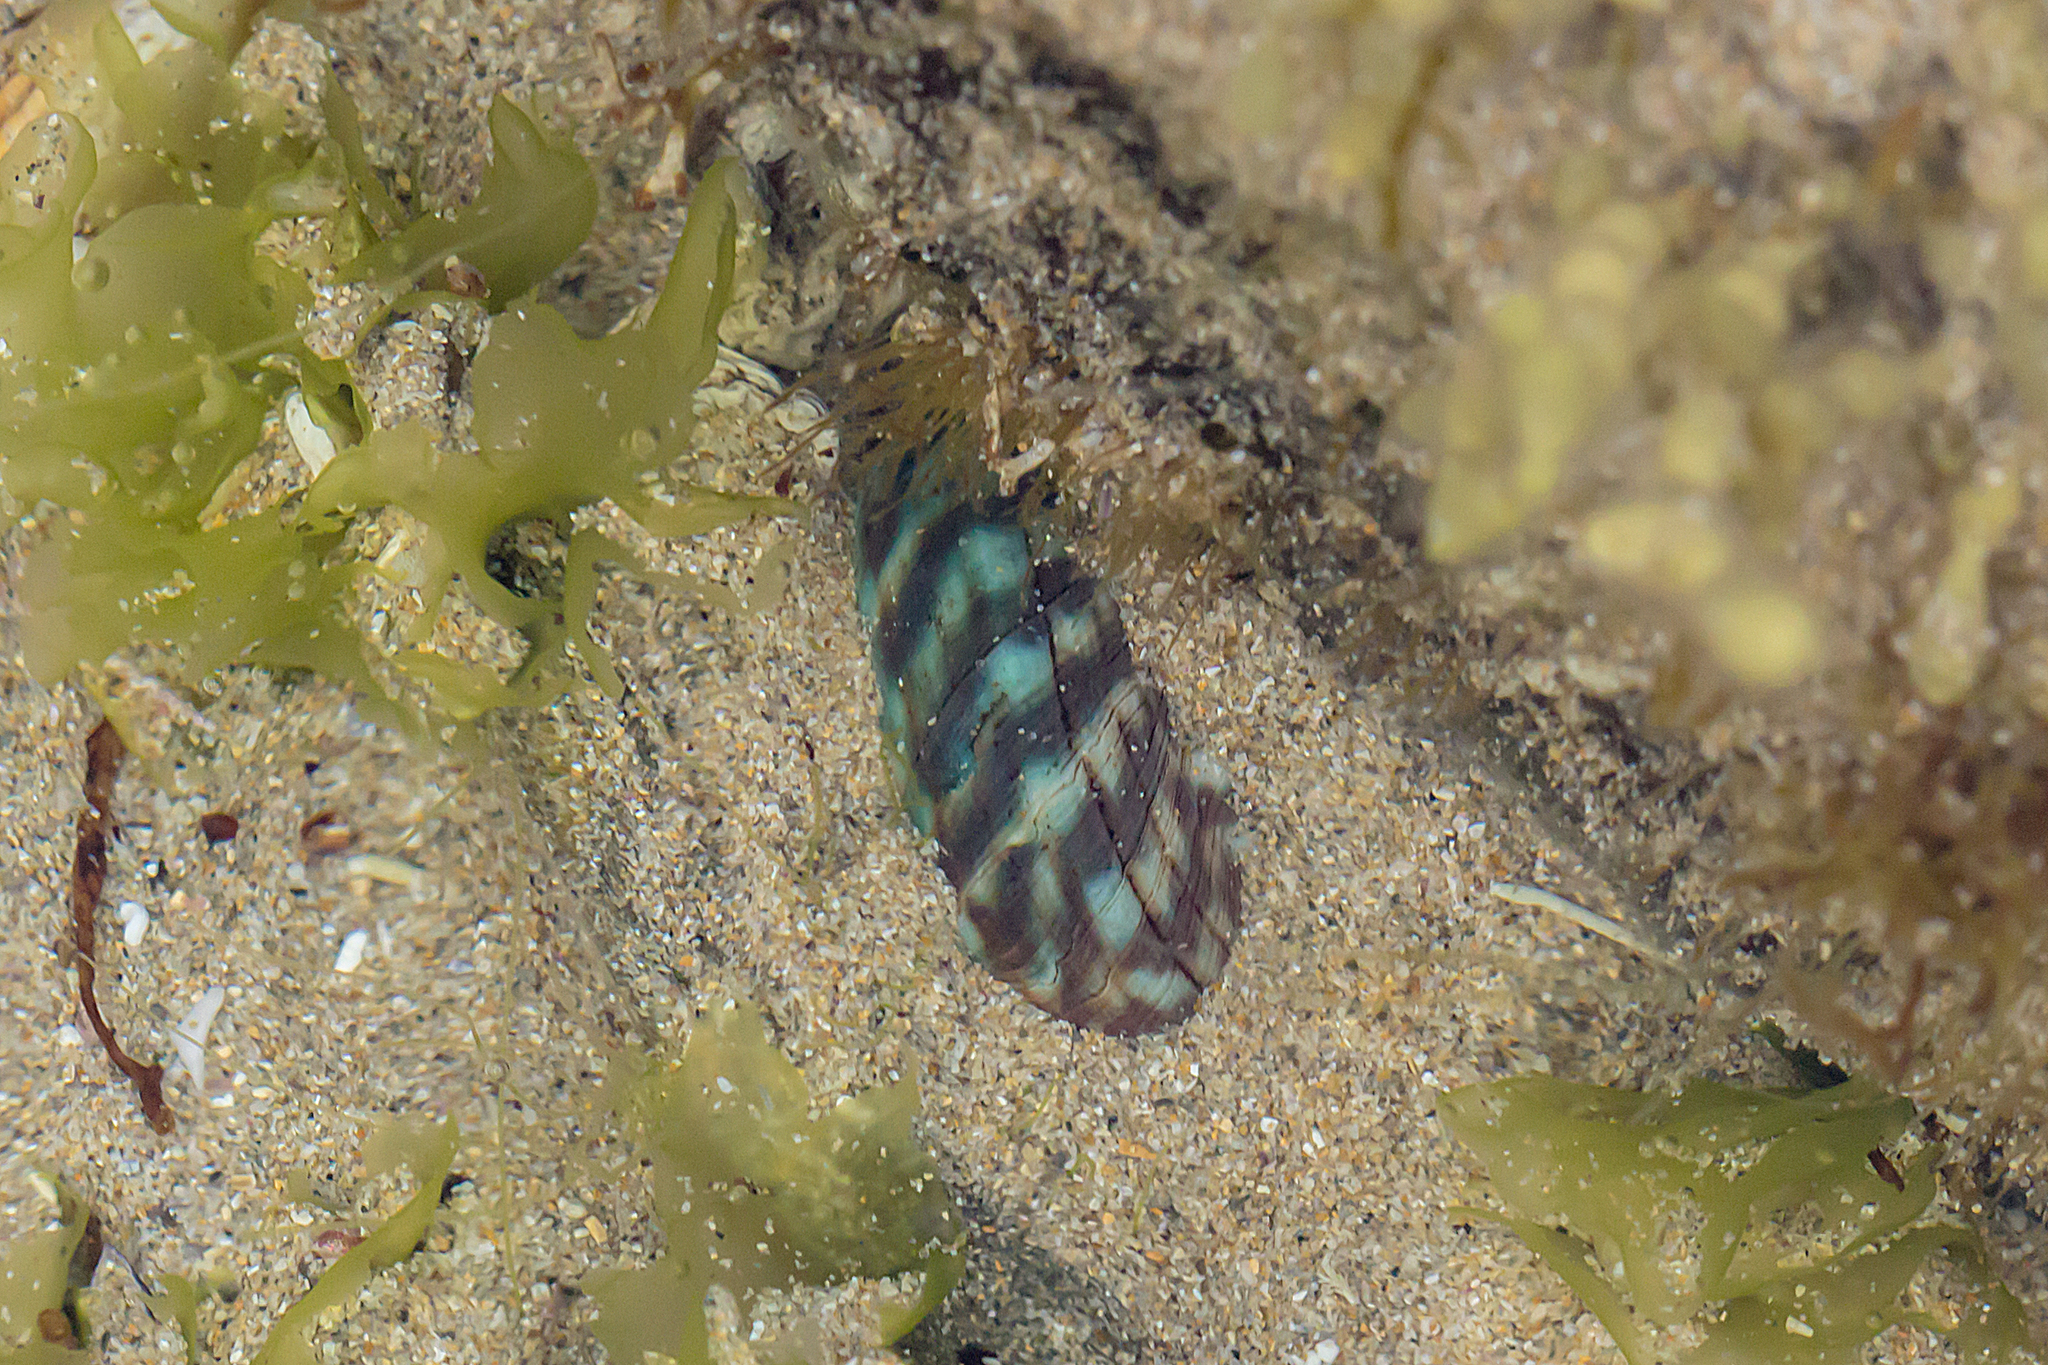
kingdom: Animalia
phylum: Mollusca
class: Gastropoda
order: Trochida
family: Turbinidae
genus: Lunella
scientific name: Lunella undulata
